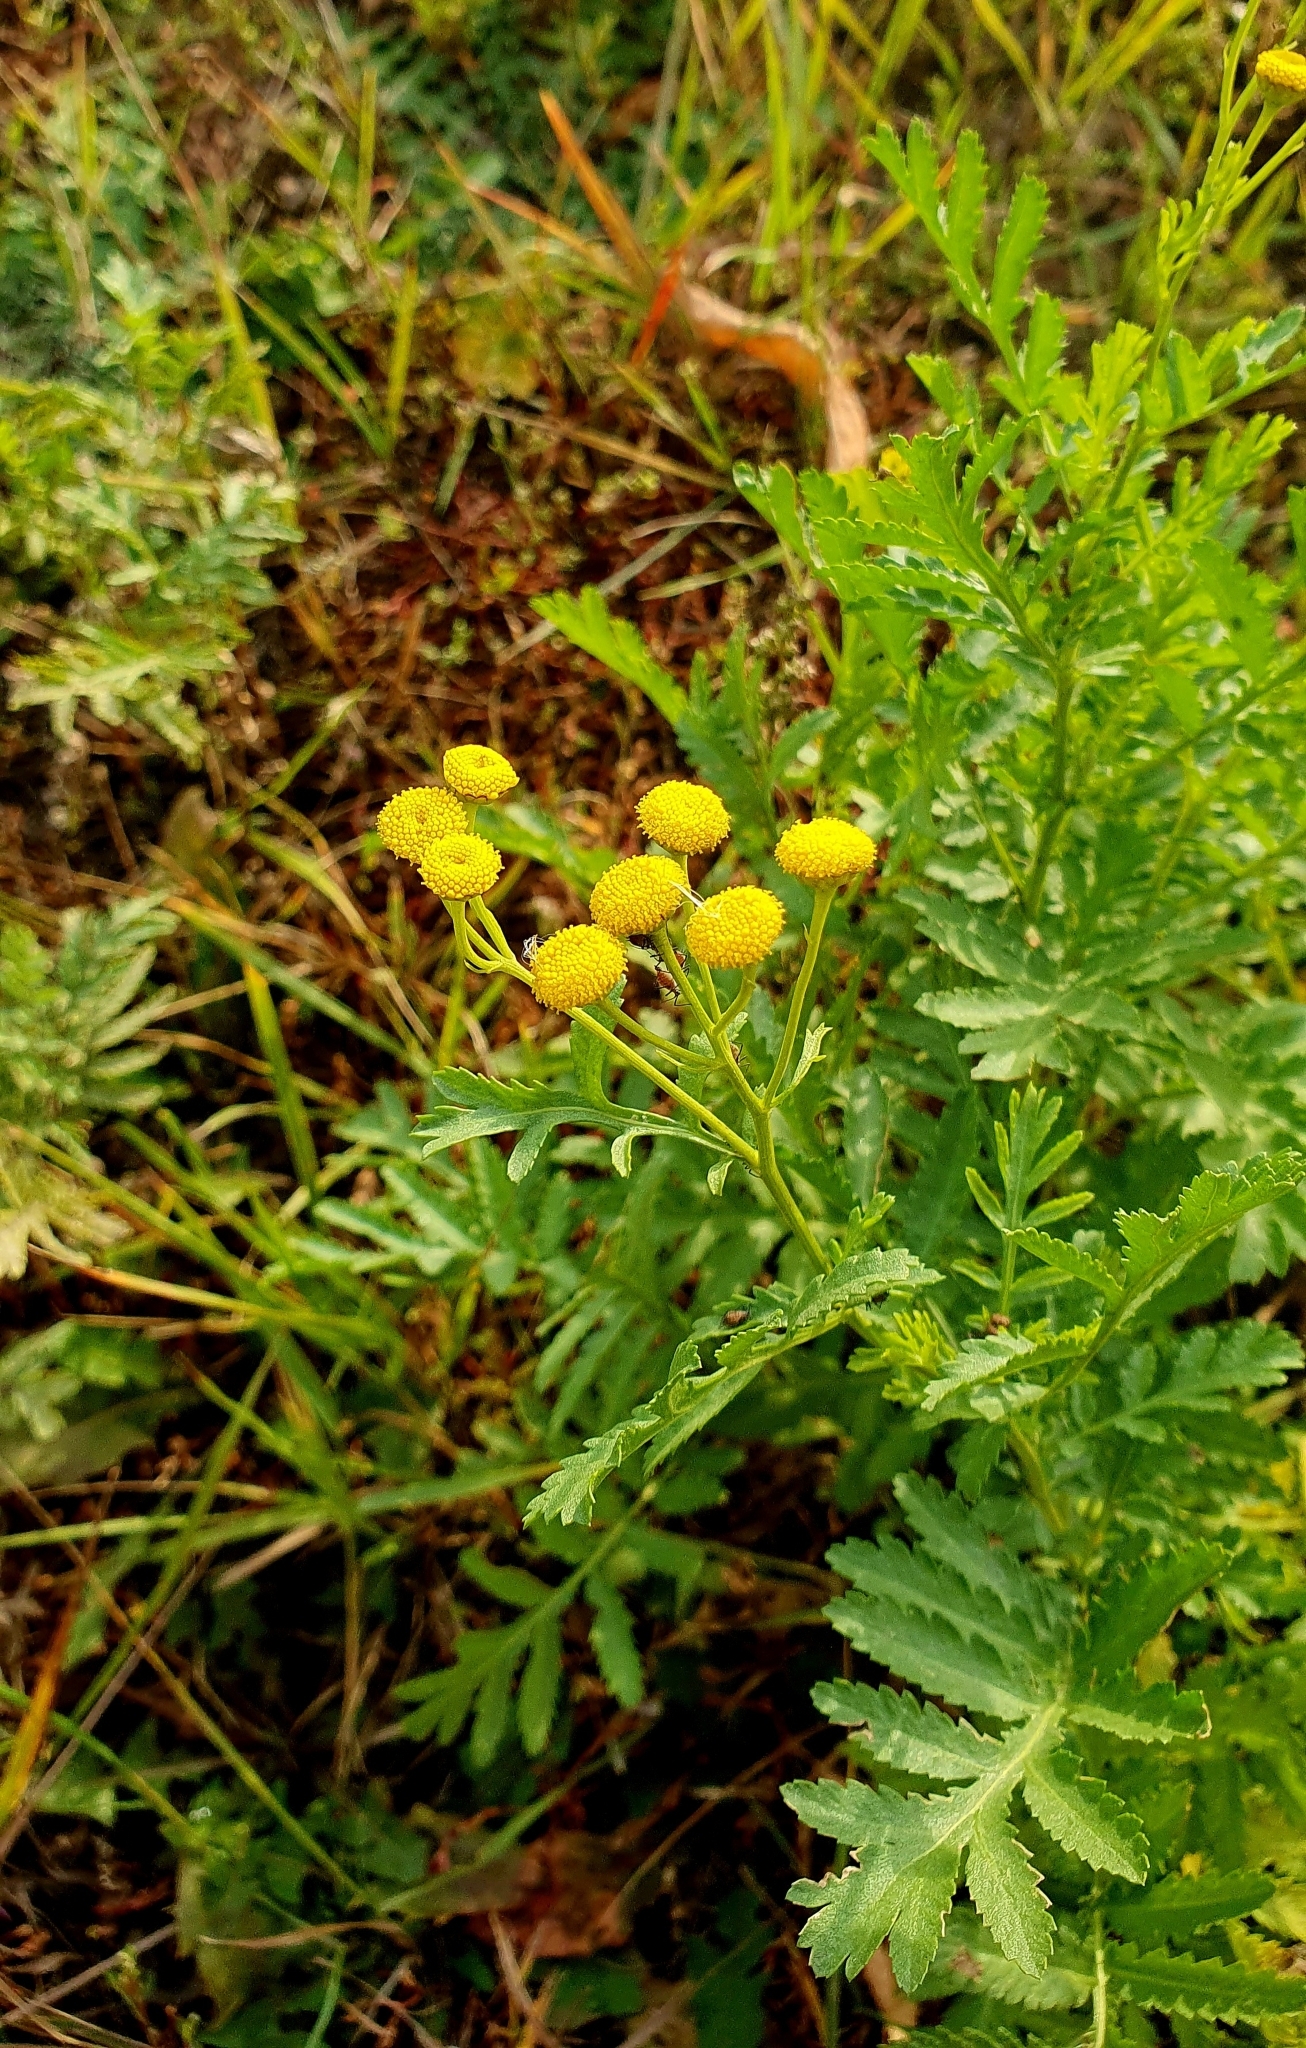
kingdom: Plantae
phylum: Tracheophyta
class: Magnoliopsida
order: Asterales
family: Asteraceae
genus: Tanacetum
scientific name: Tanacetum vulgare
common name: Common tansy
